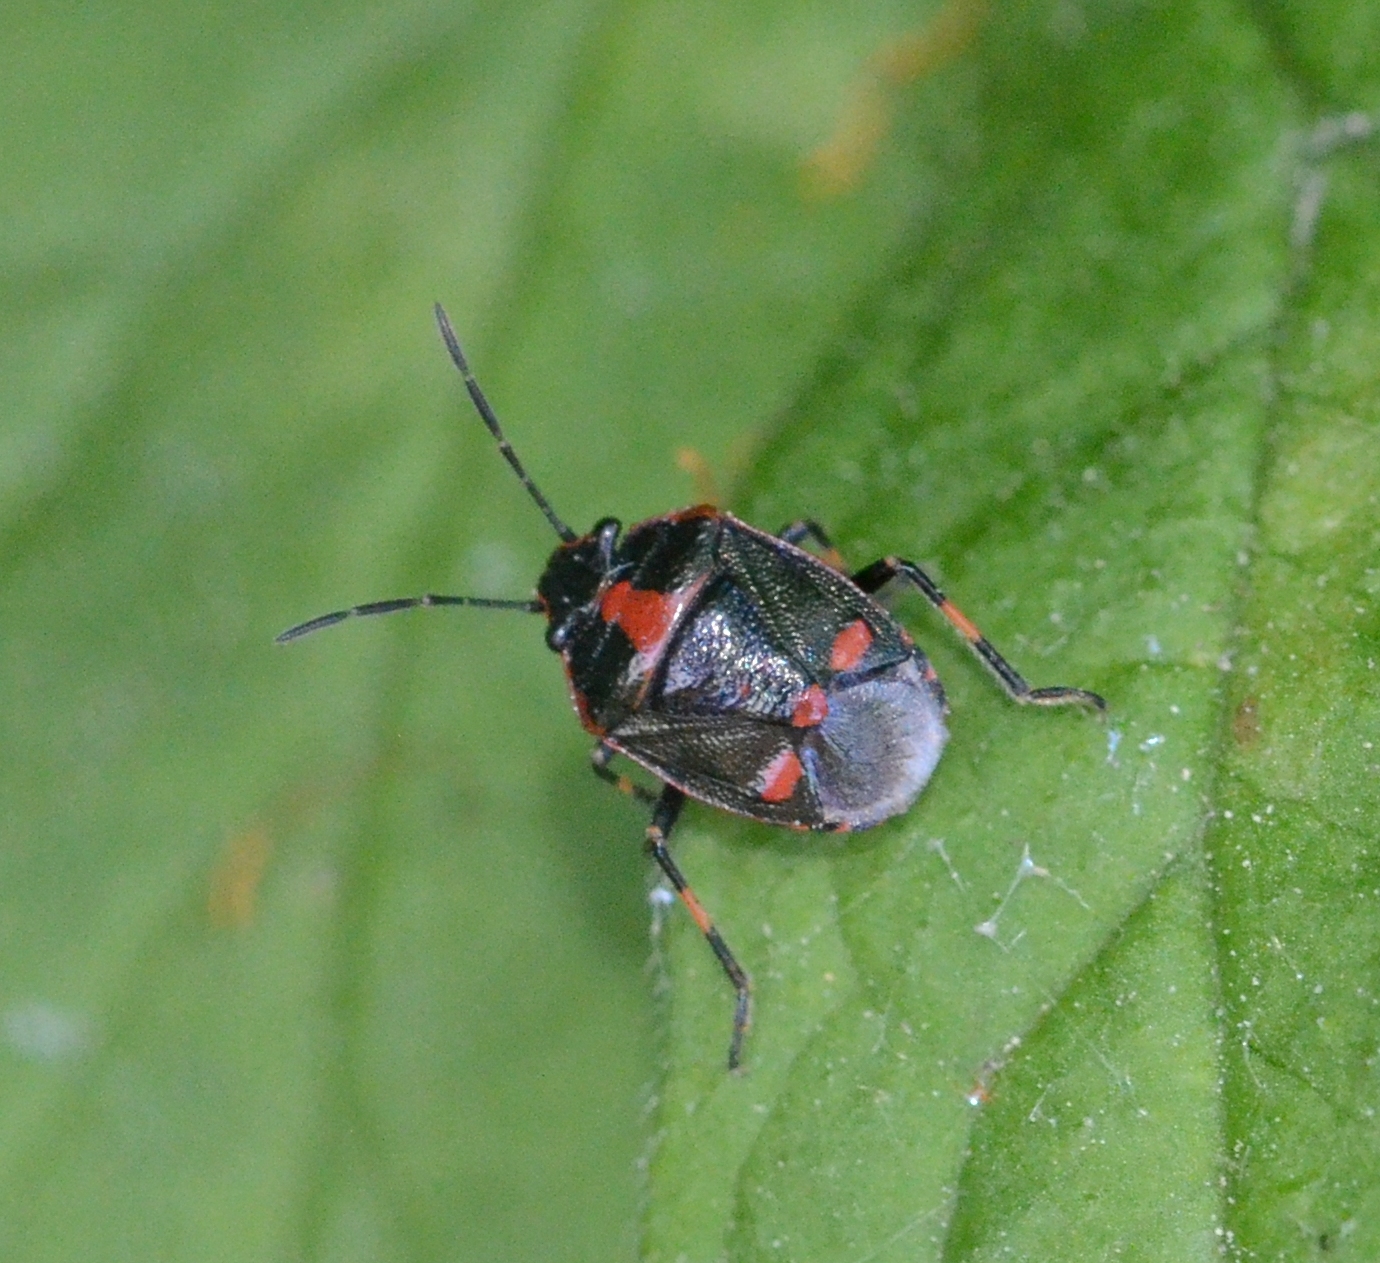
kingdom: Animalia
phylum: Arthropoda
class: Insecta
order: Hemiptera
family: Pentatomidae
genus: Eurydema
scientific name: Eurydema oleracea
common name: Cabbage bug
